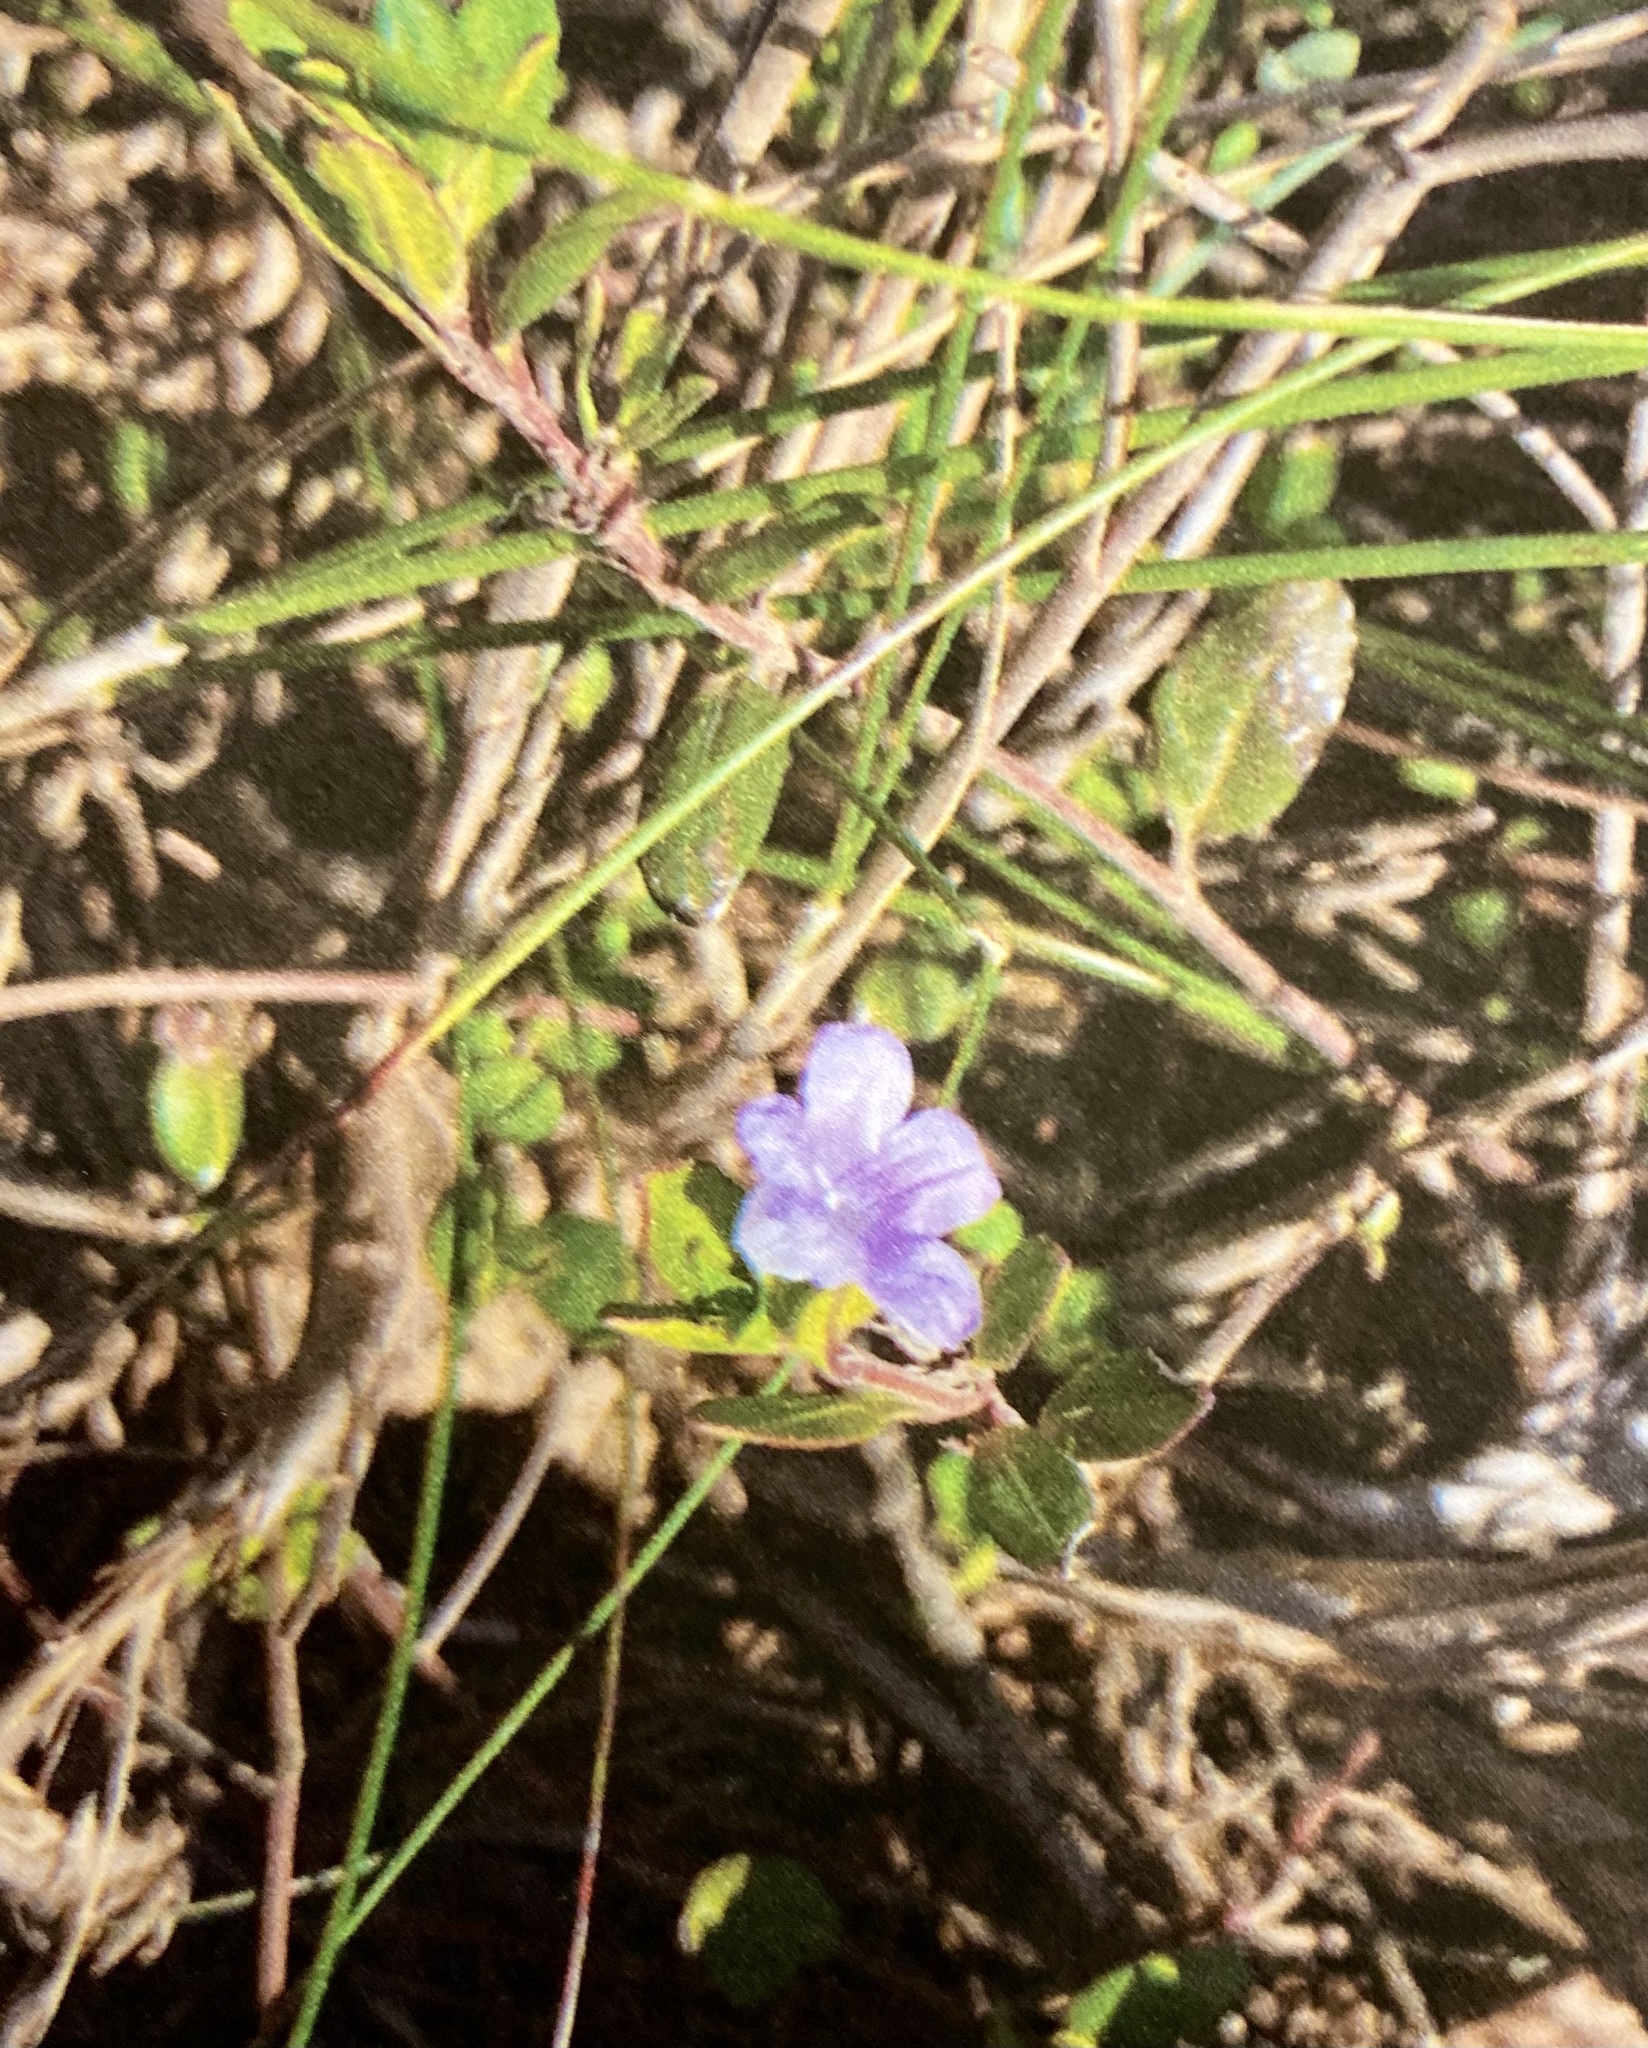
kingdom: Plantae
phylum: Tracheophyta
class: Magnoliopsida
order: Lamiales
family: Acanthaceae
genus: Ruellia
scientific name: Ruellia pilosa
